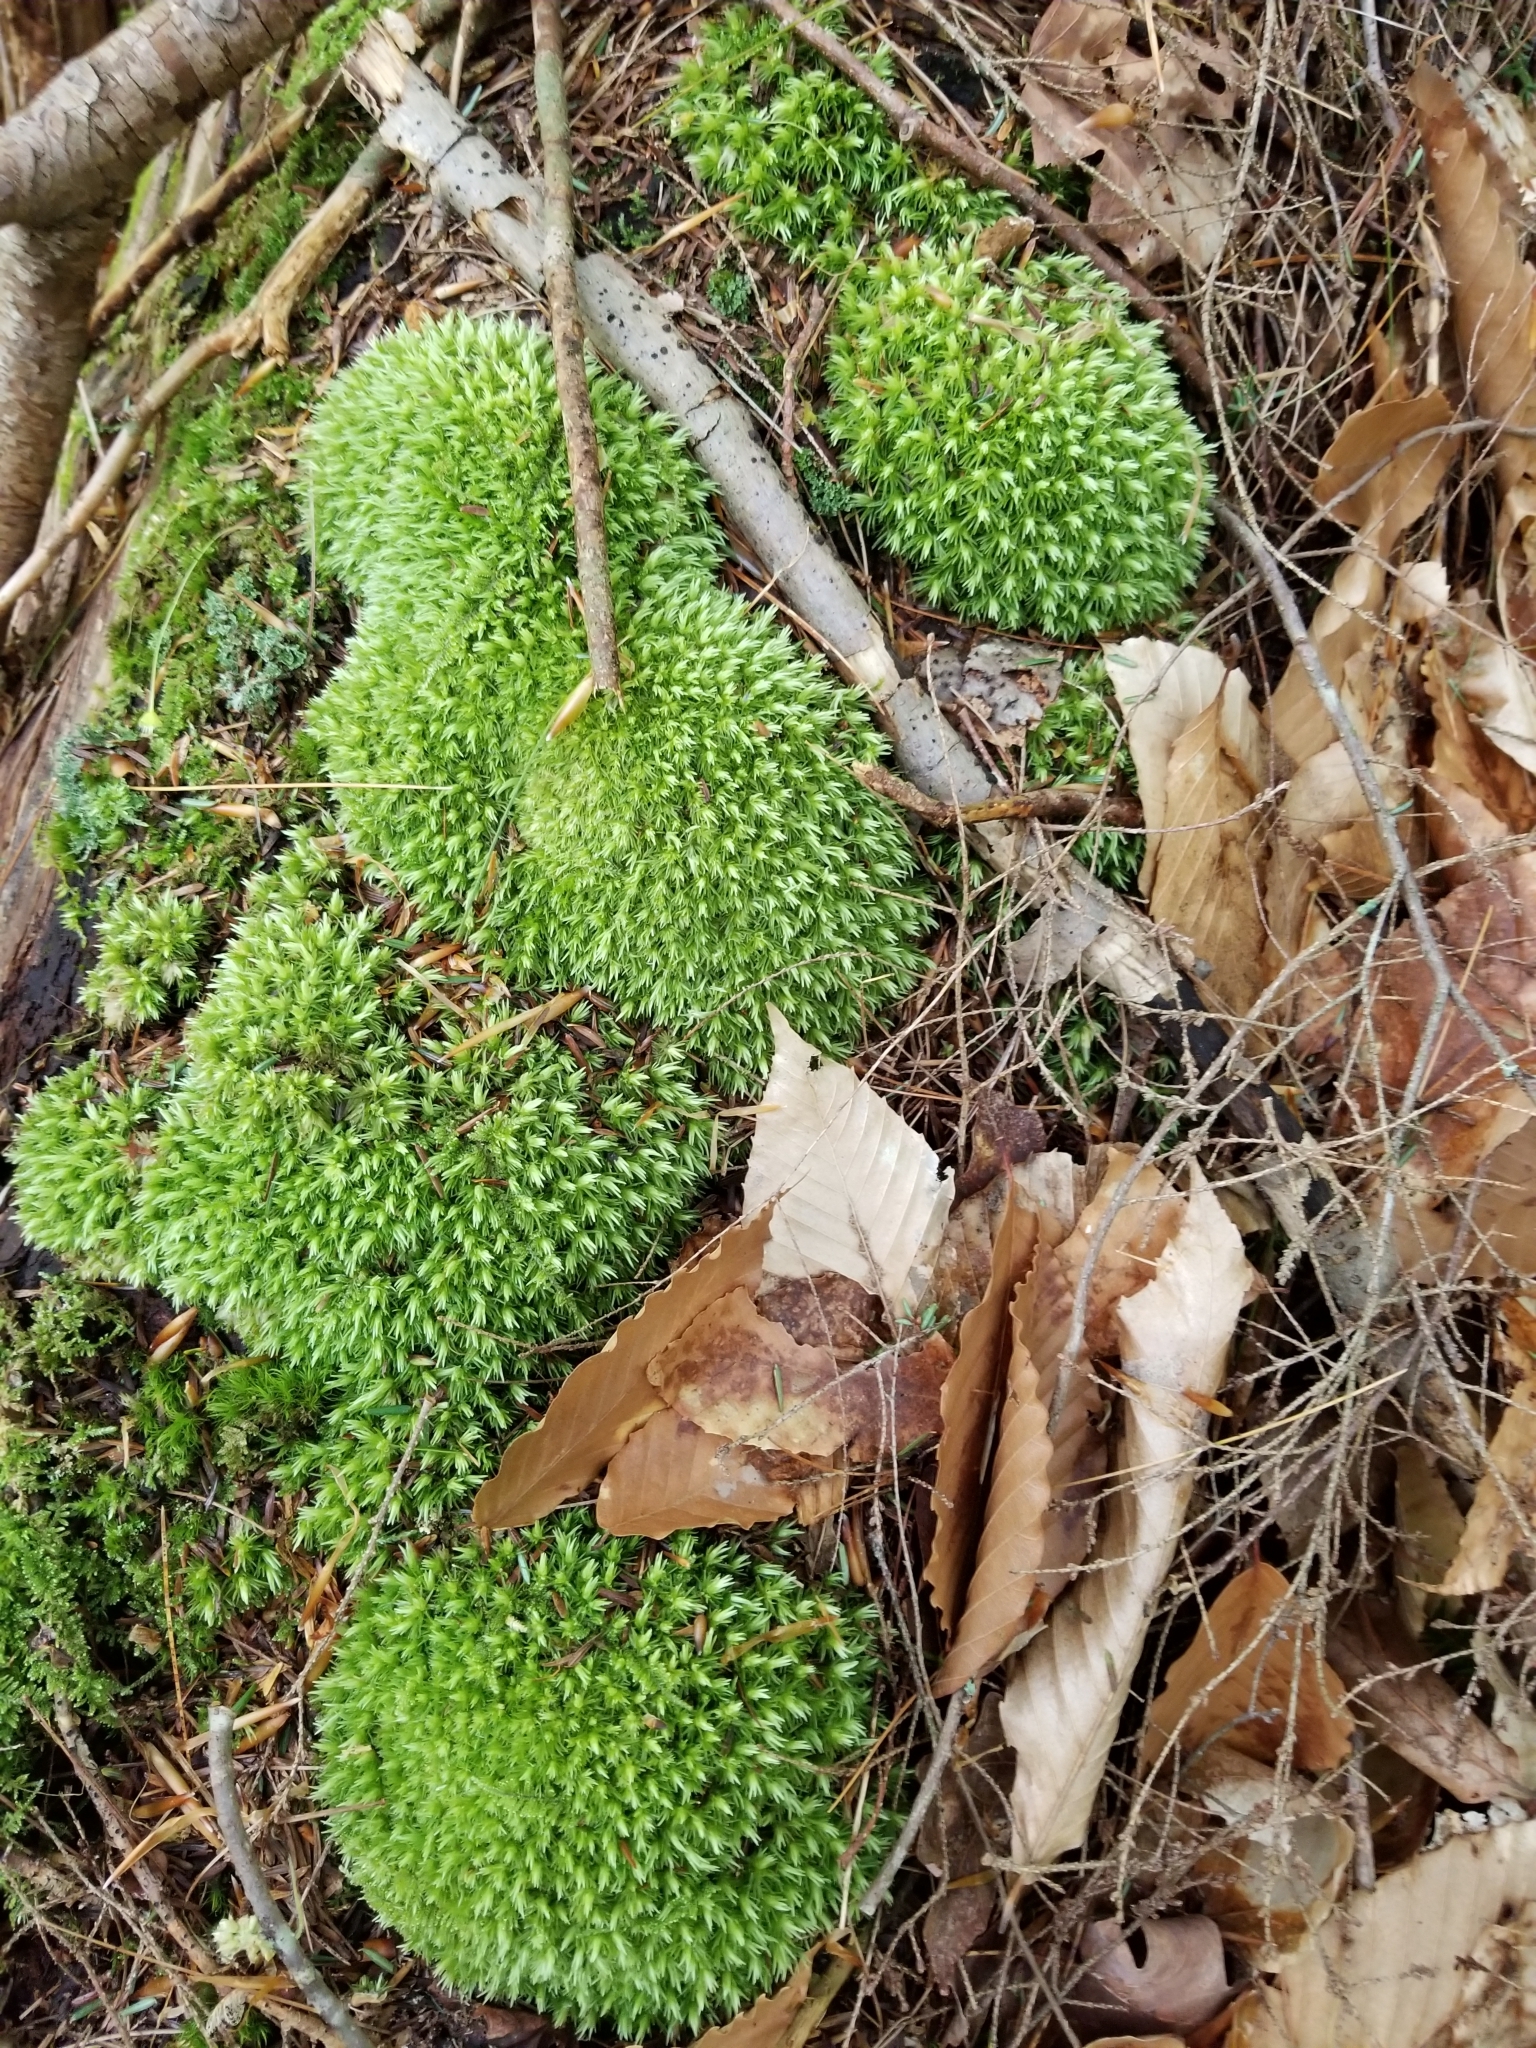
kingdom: Plantae
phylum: Bryophyta
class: Bryopsida
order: Dicranales
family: Leucobryaceae
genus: Leucobryum
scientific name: Leucobryum glaucum
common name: Large white-moss
